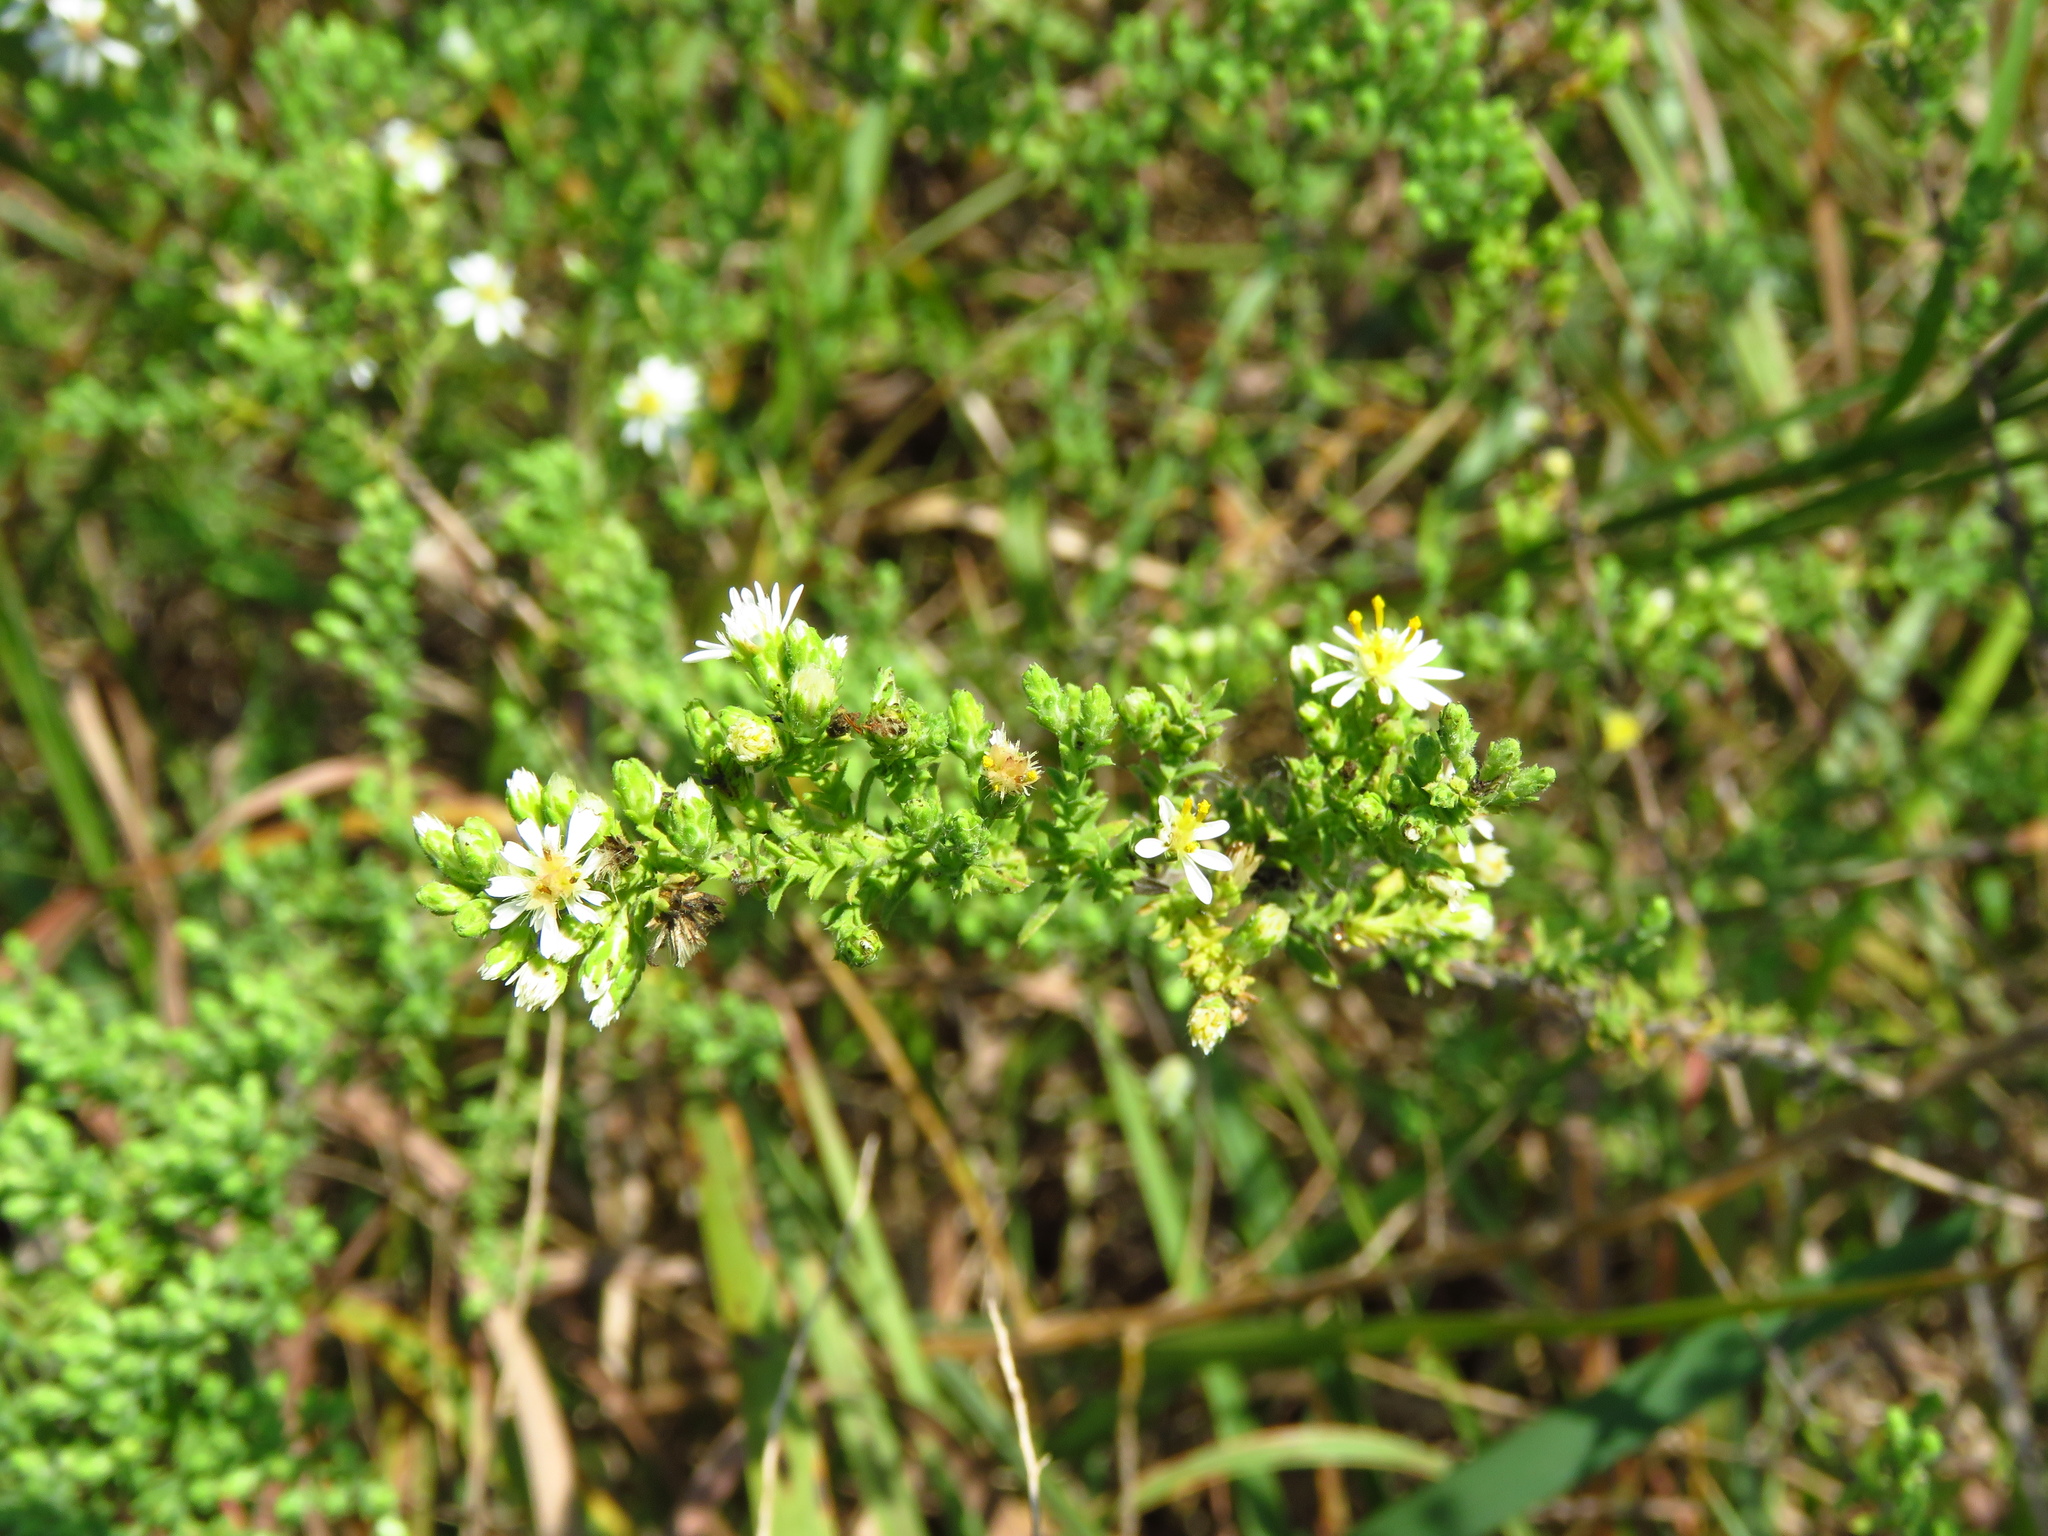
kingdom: Plantae
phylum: Tracheophyta
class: Magnoliopsida
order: Asterales
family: Asteraceae
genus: Symphyotrichum
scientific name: Symphyotrichum ericoides
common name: Heath aster
